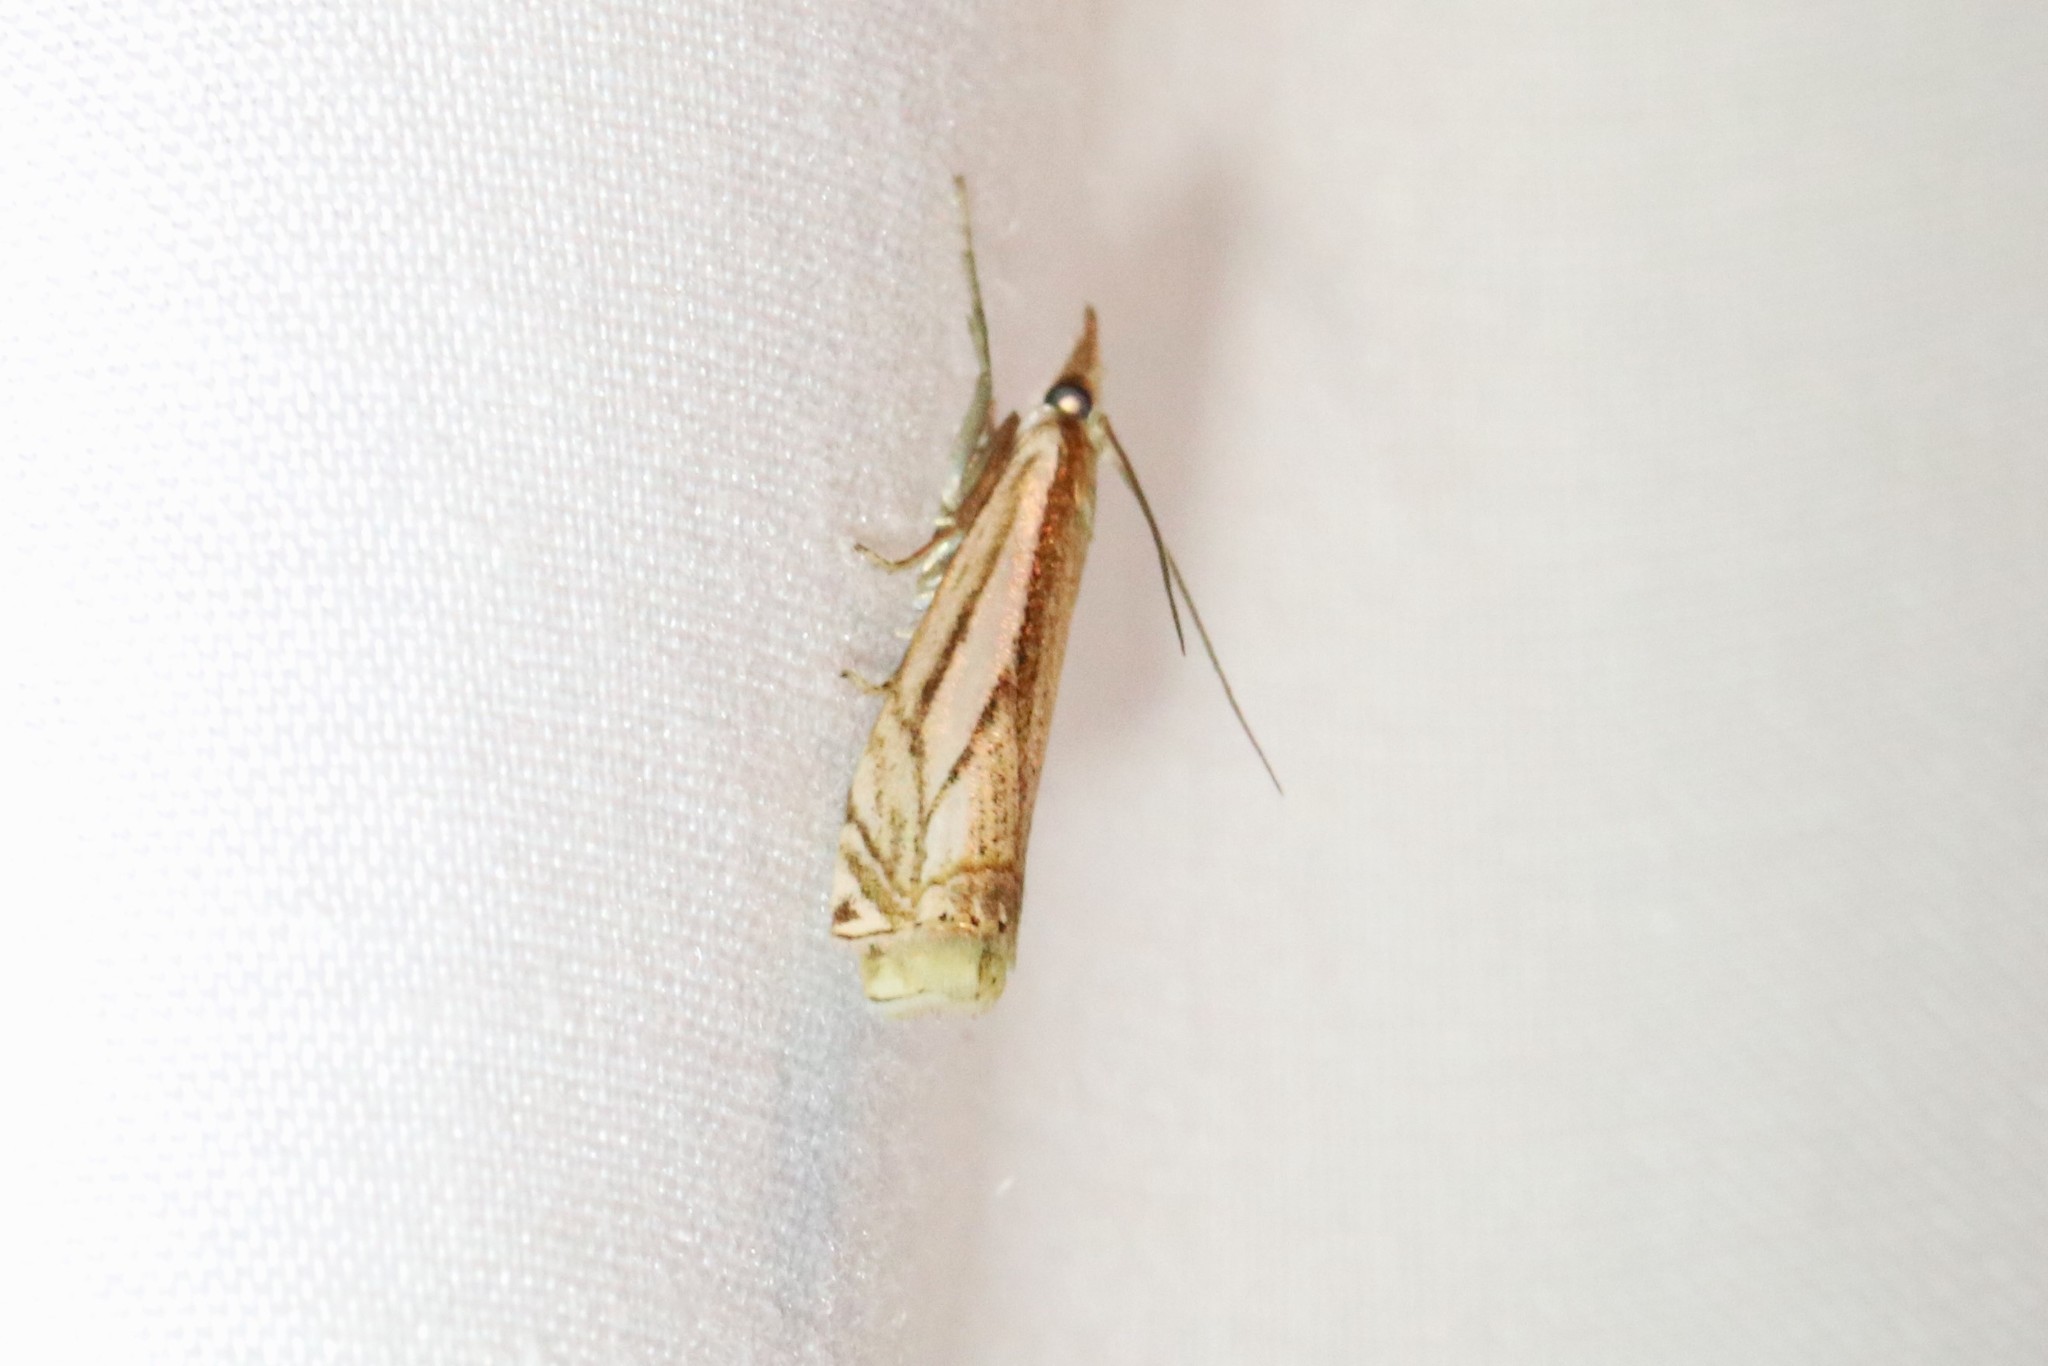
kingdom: Animalia
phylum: Arthropoda
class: Insecta
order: Lepidoptera
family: Crambidae
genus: Crambus
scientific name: Crambus saltuellus
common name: Pasture grass-veneer
